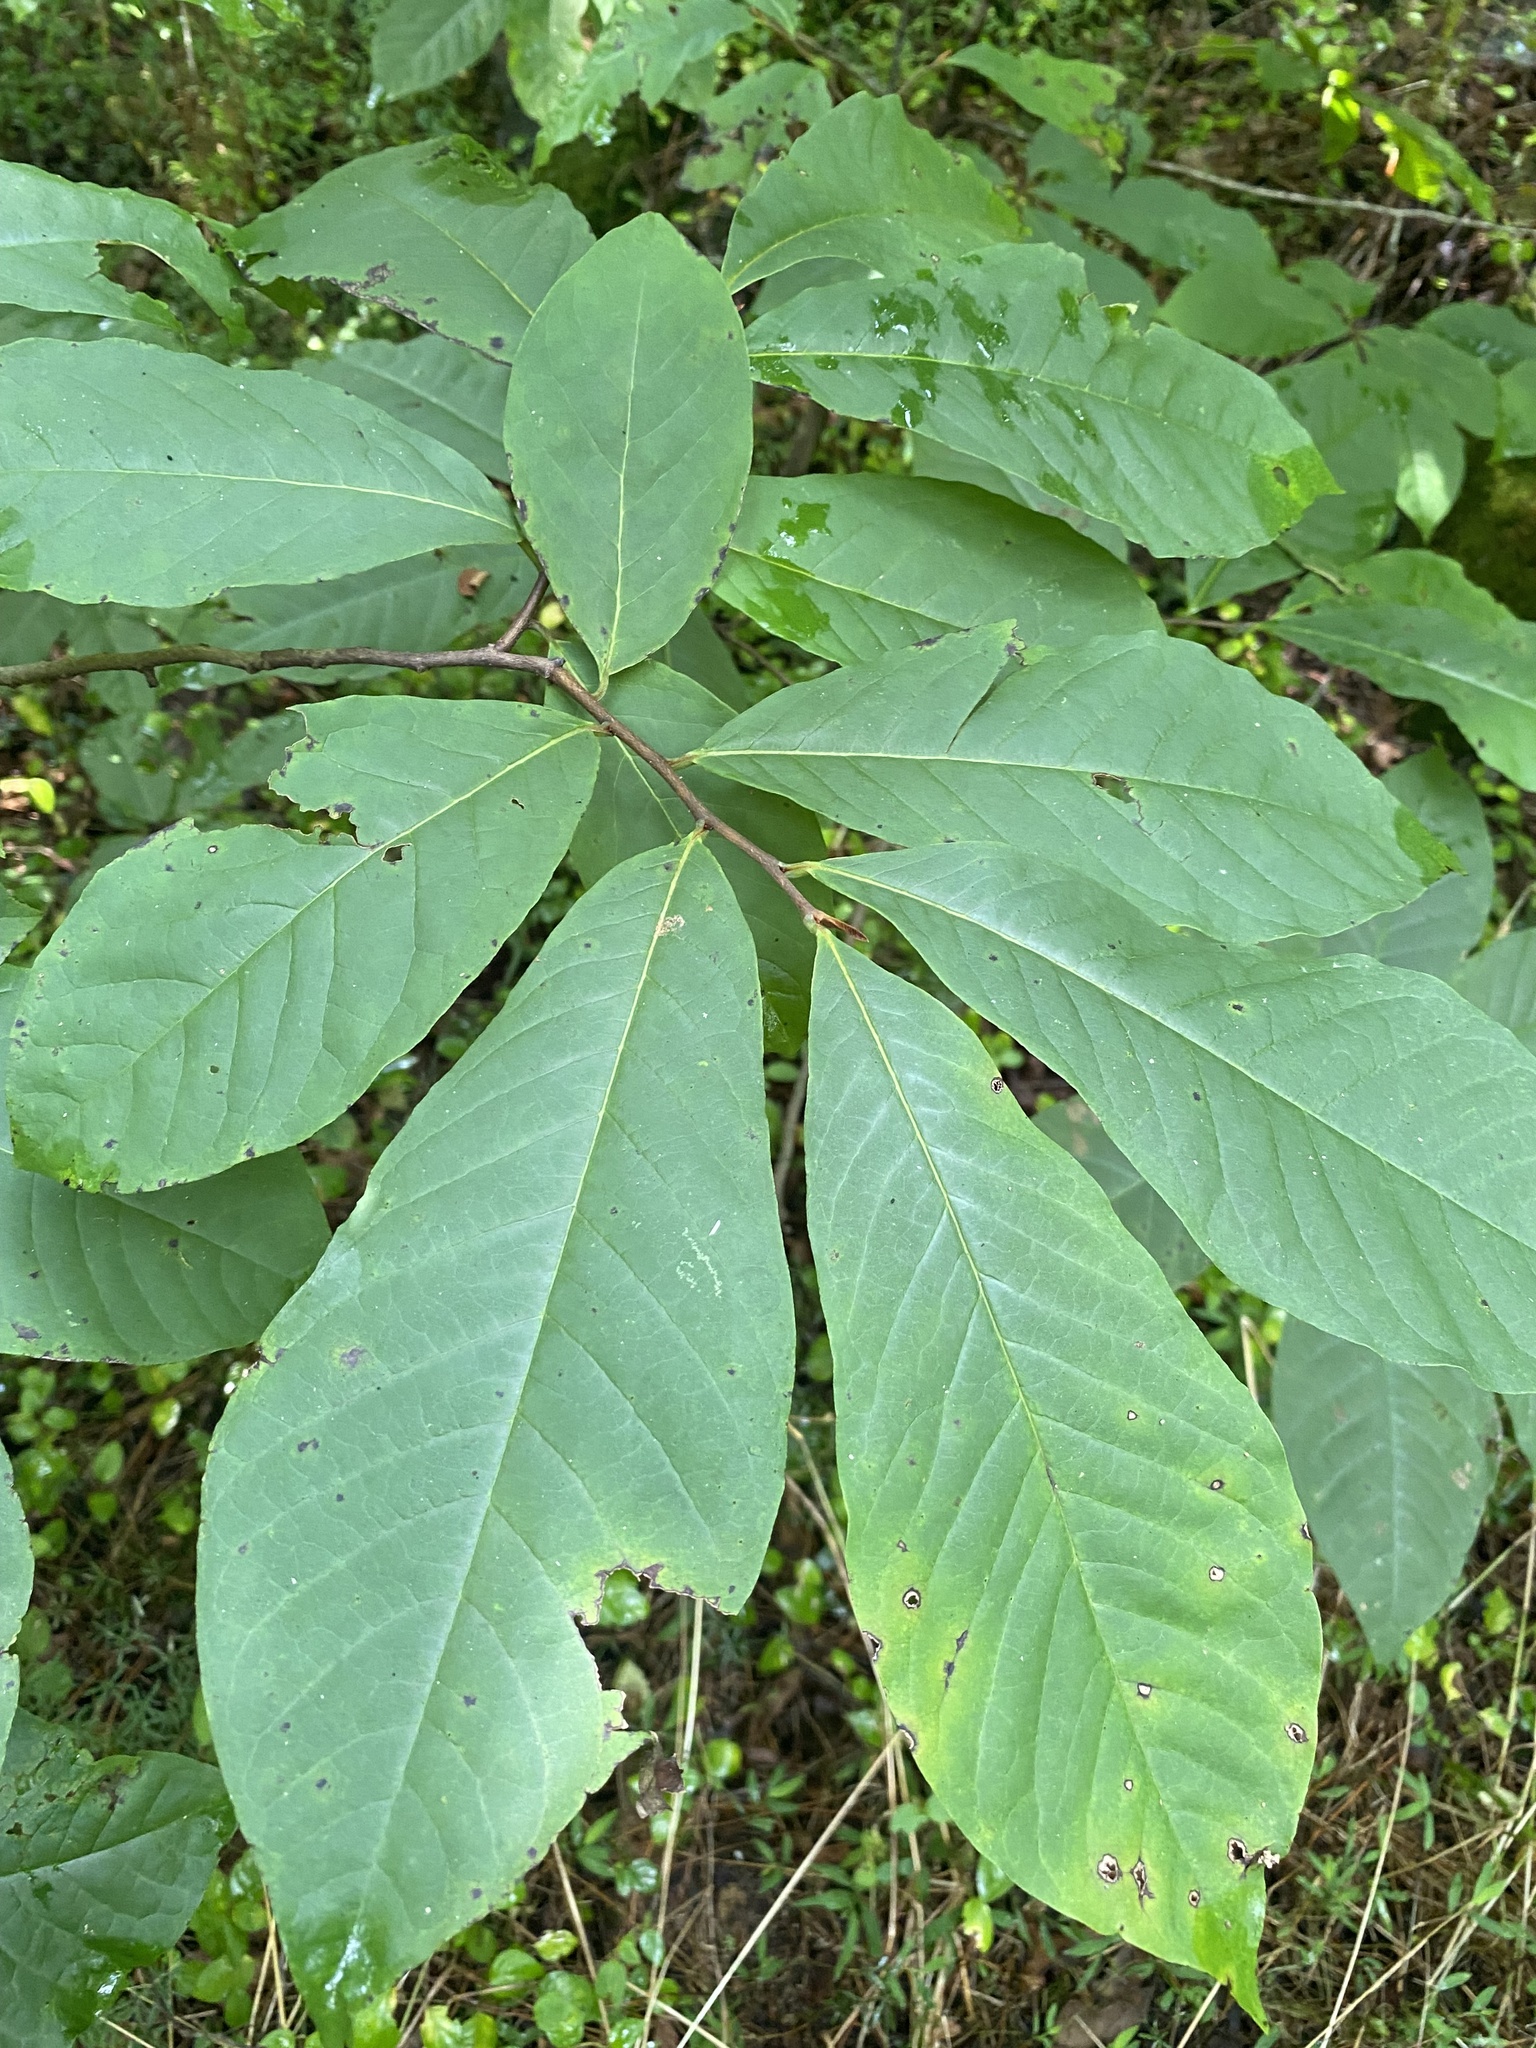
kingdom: Plantae
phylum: Tracheophyta
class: Magnoliopsida
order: Magnoliales
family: Annonaceae
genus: Asimina
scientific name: Asimina triloba
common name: Dog-banana
